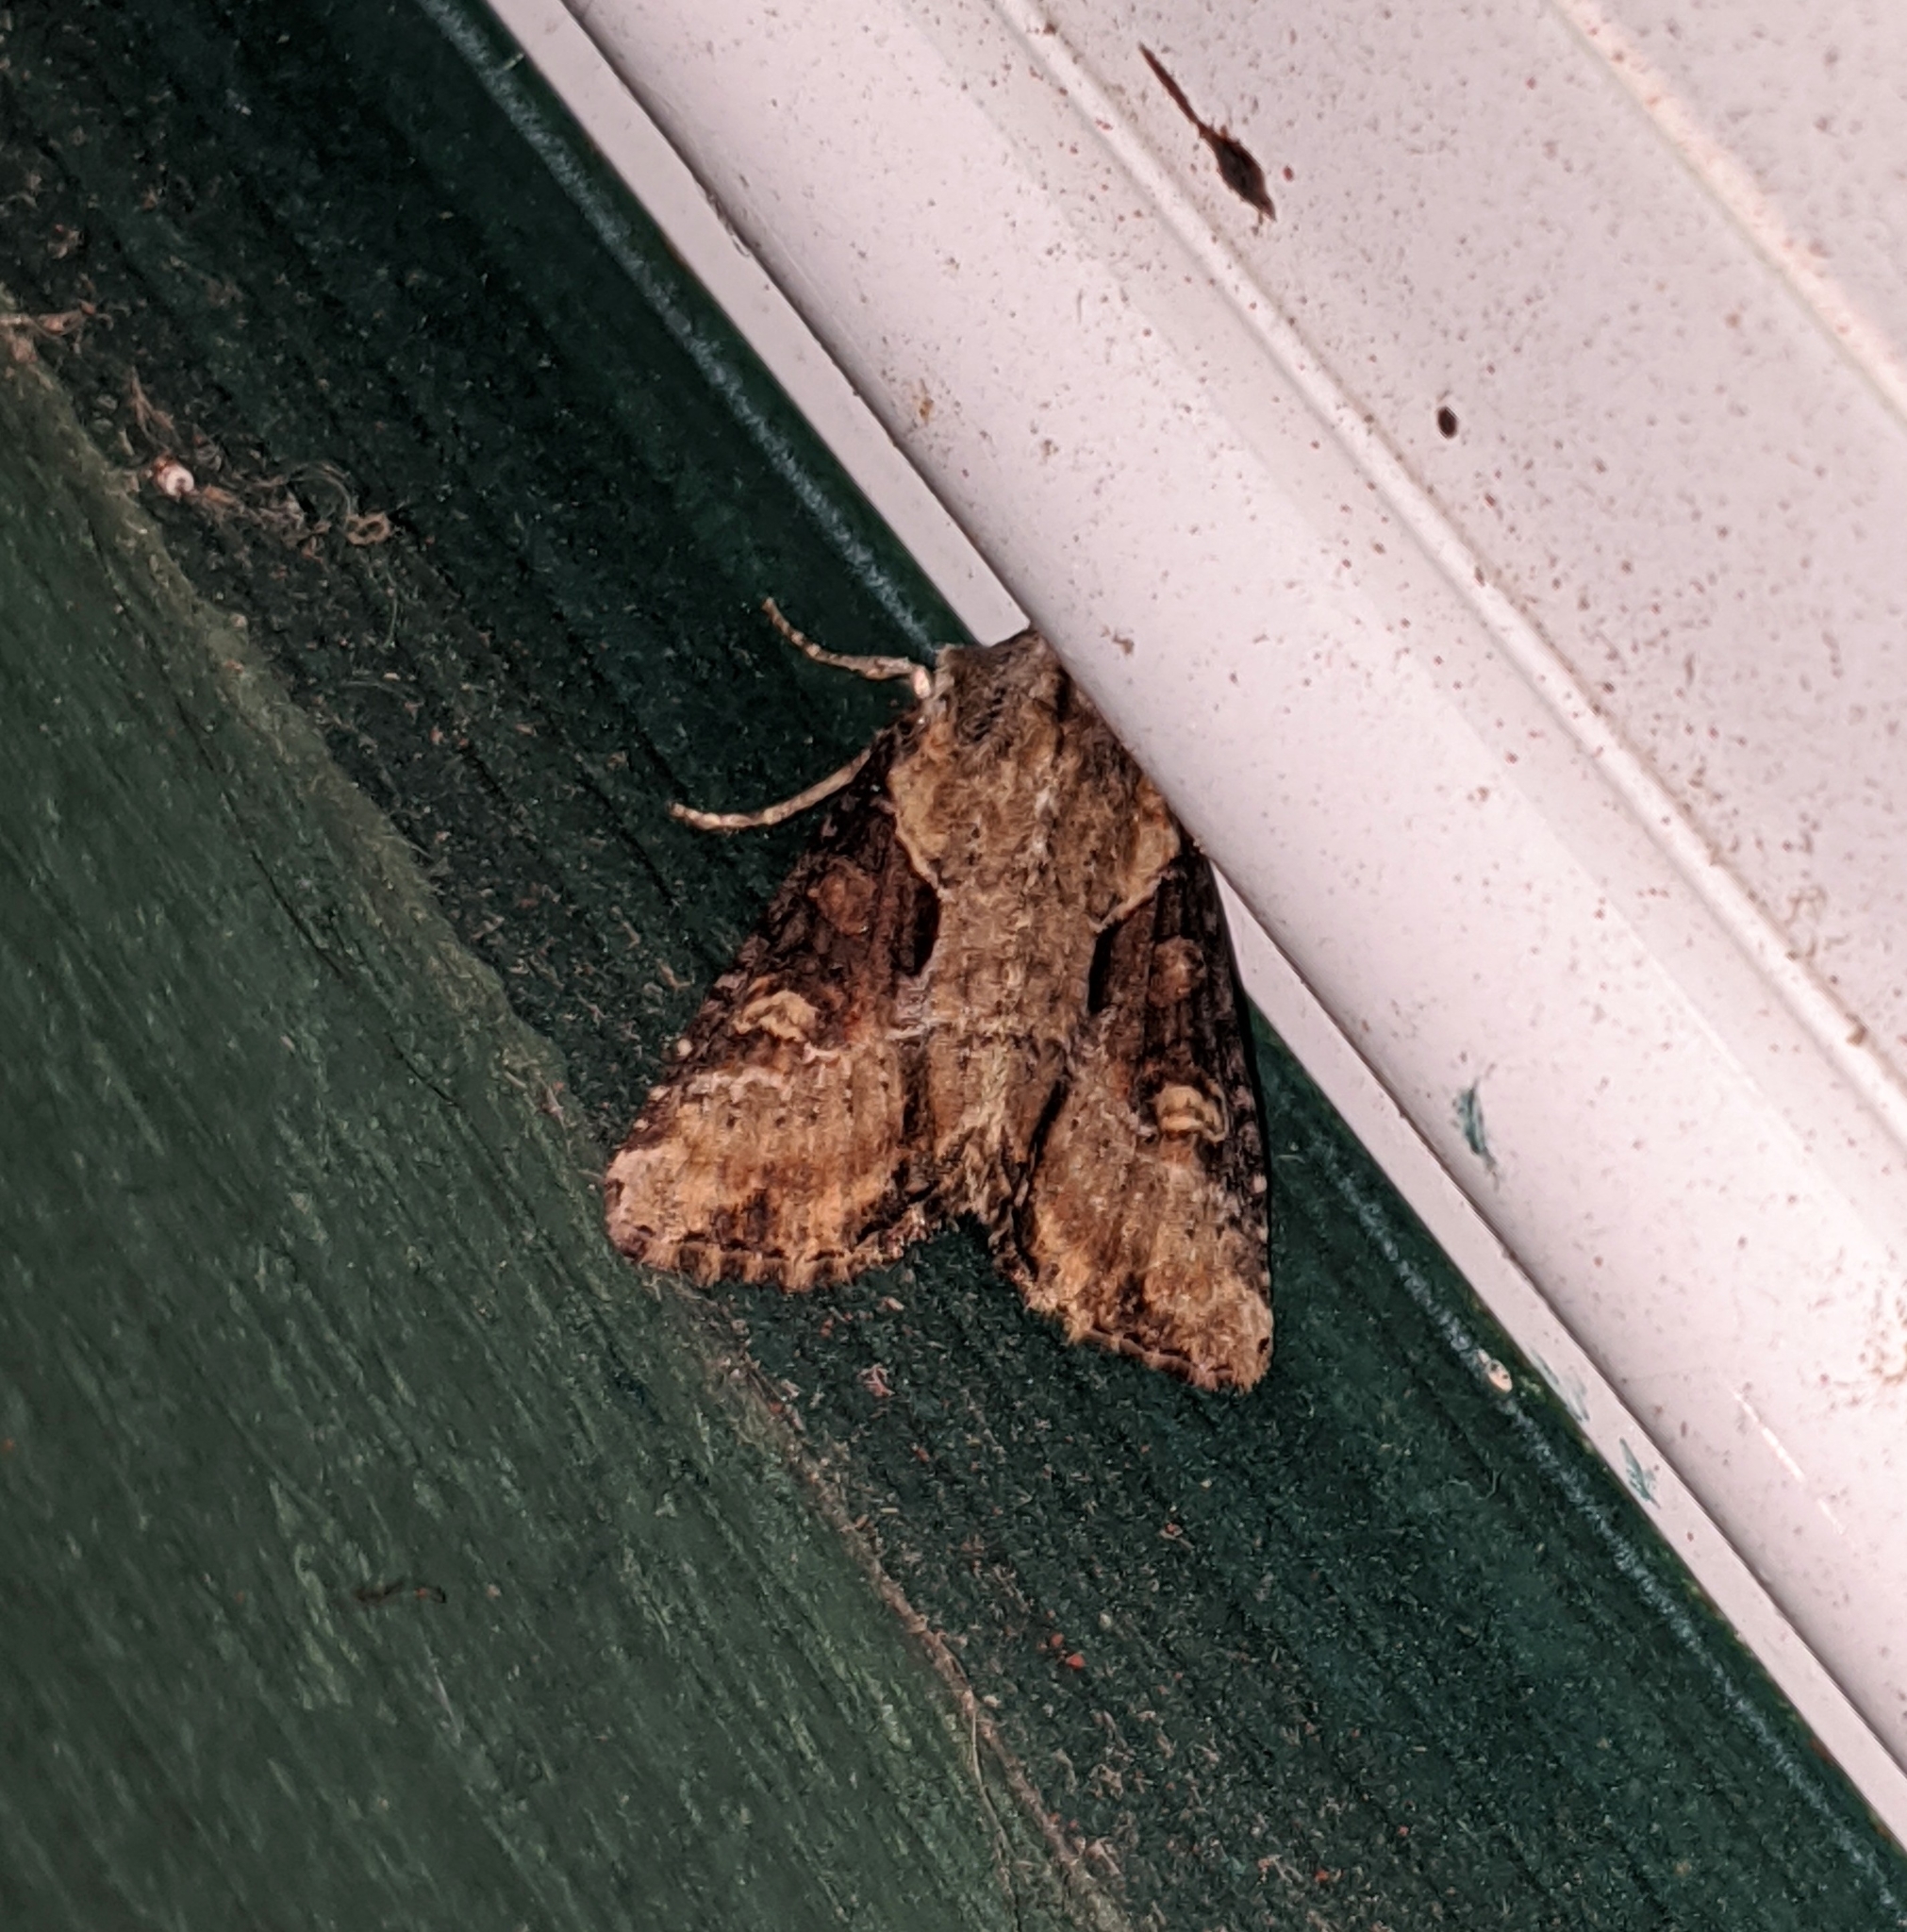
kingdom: Animalia
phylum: Arthropoda
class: Insecta
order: Lepidoptera
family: Noctuidae
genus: Lateroligia
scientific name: Lateroligia ophiogramma
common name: Double lobed
